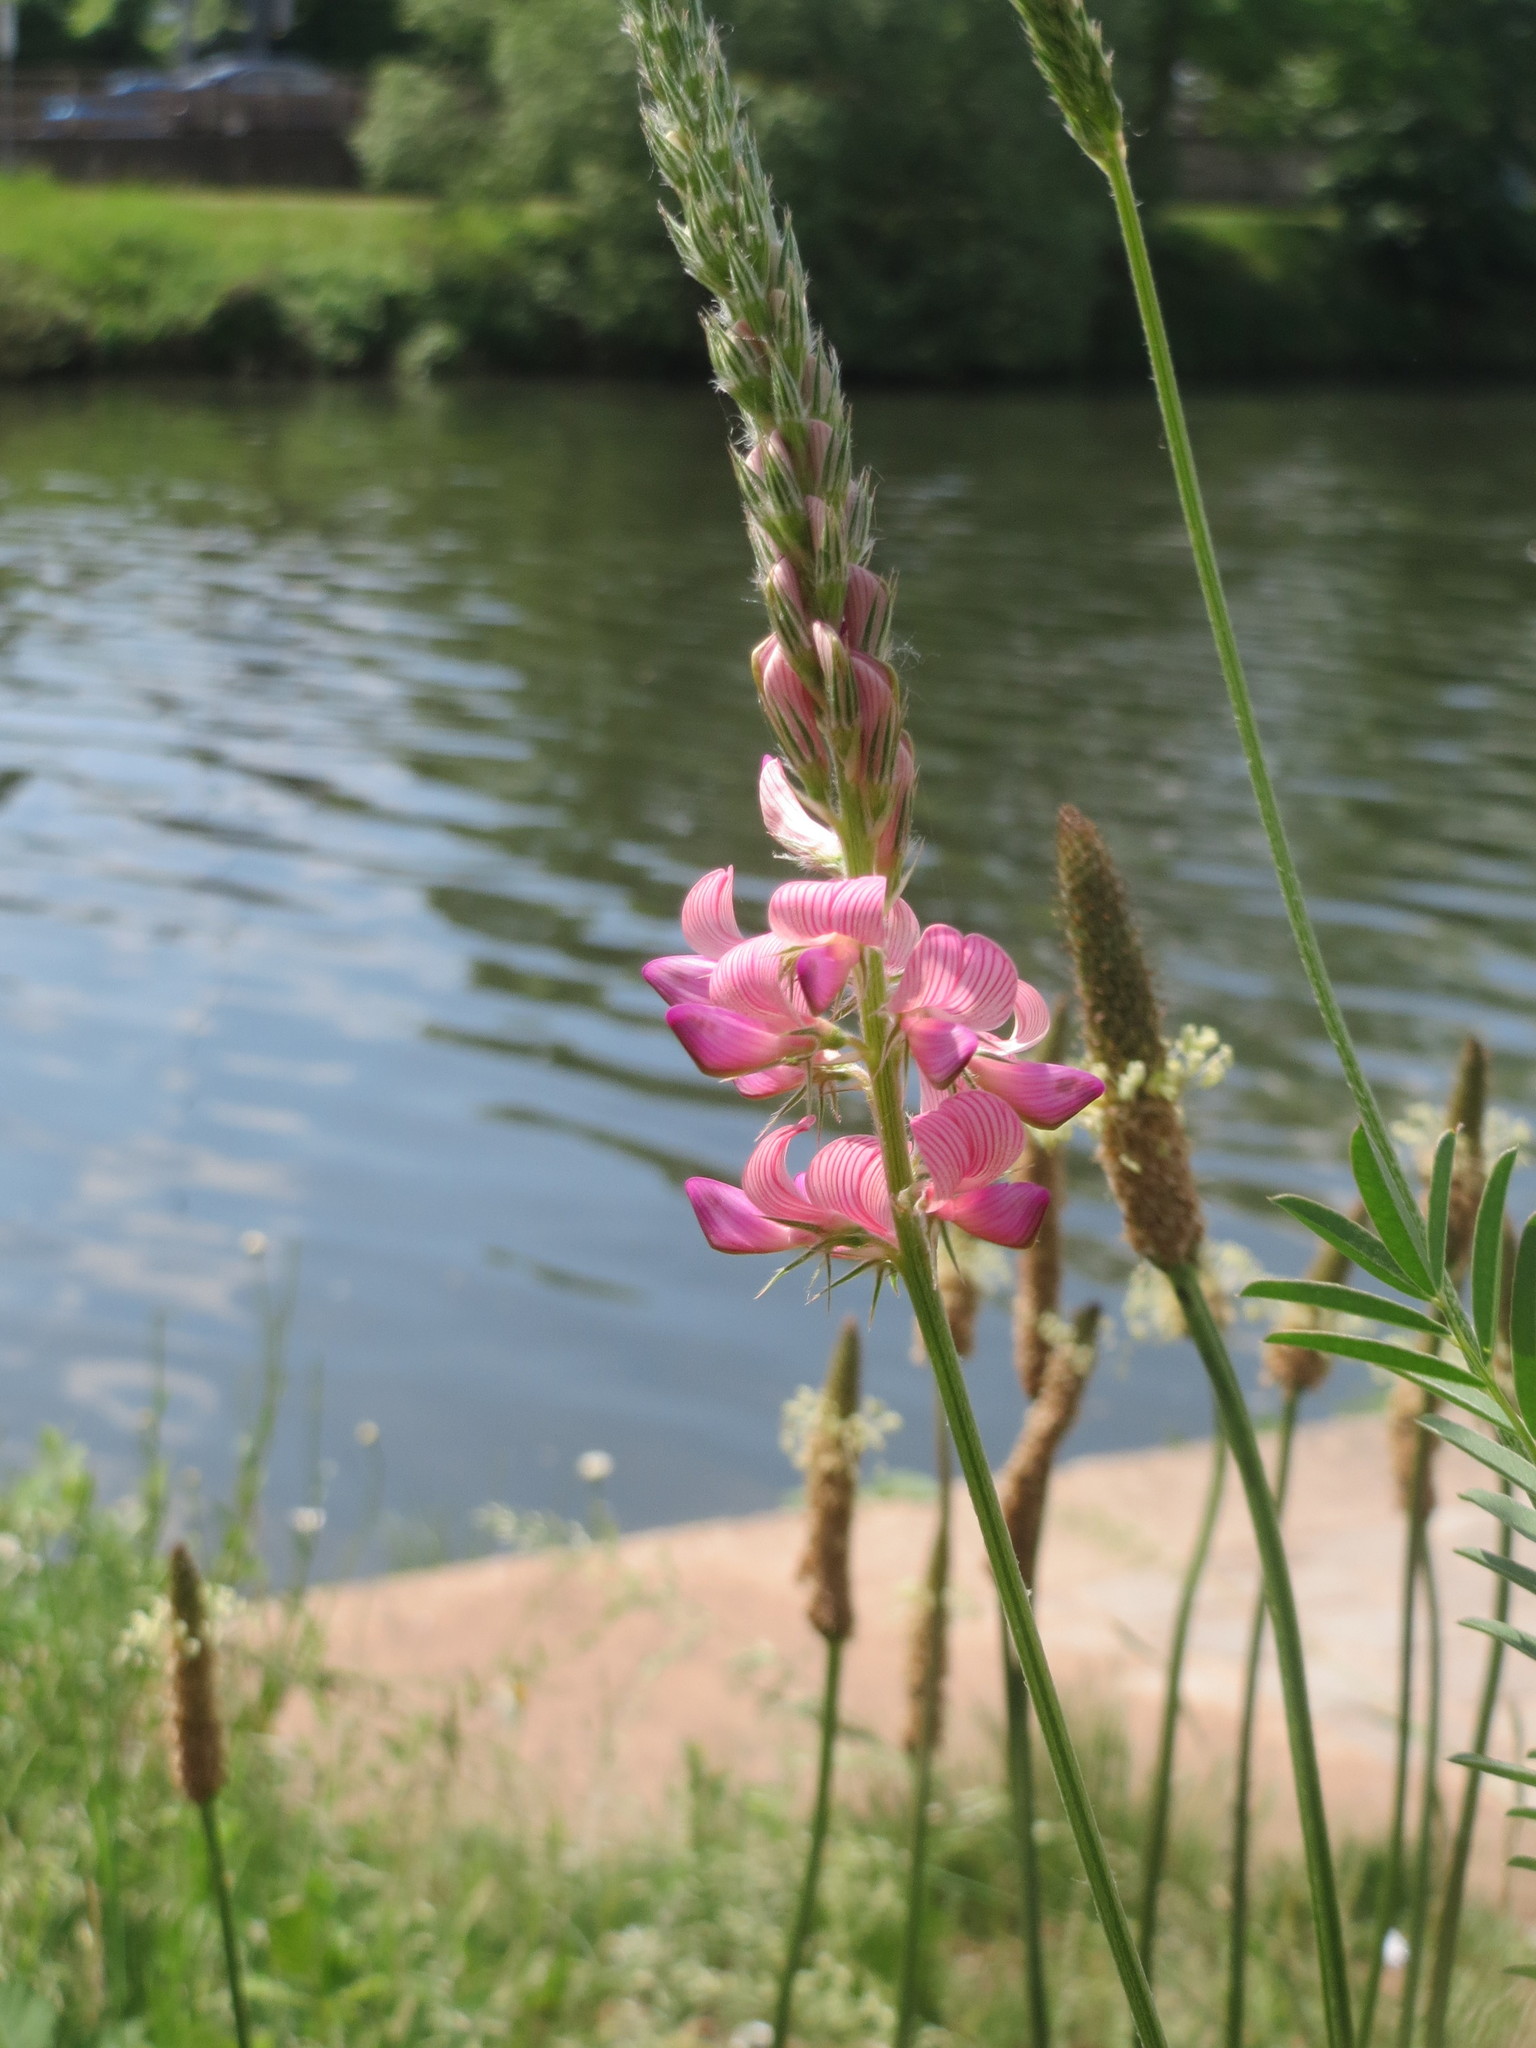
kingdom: Plantae
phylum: Tracheophyta
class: Magnoliopsida
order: Fabales
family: Fabaceae
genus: Onobrychis
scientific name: Onobrychis viciifolia
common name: Sainfoin
